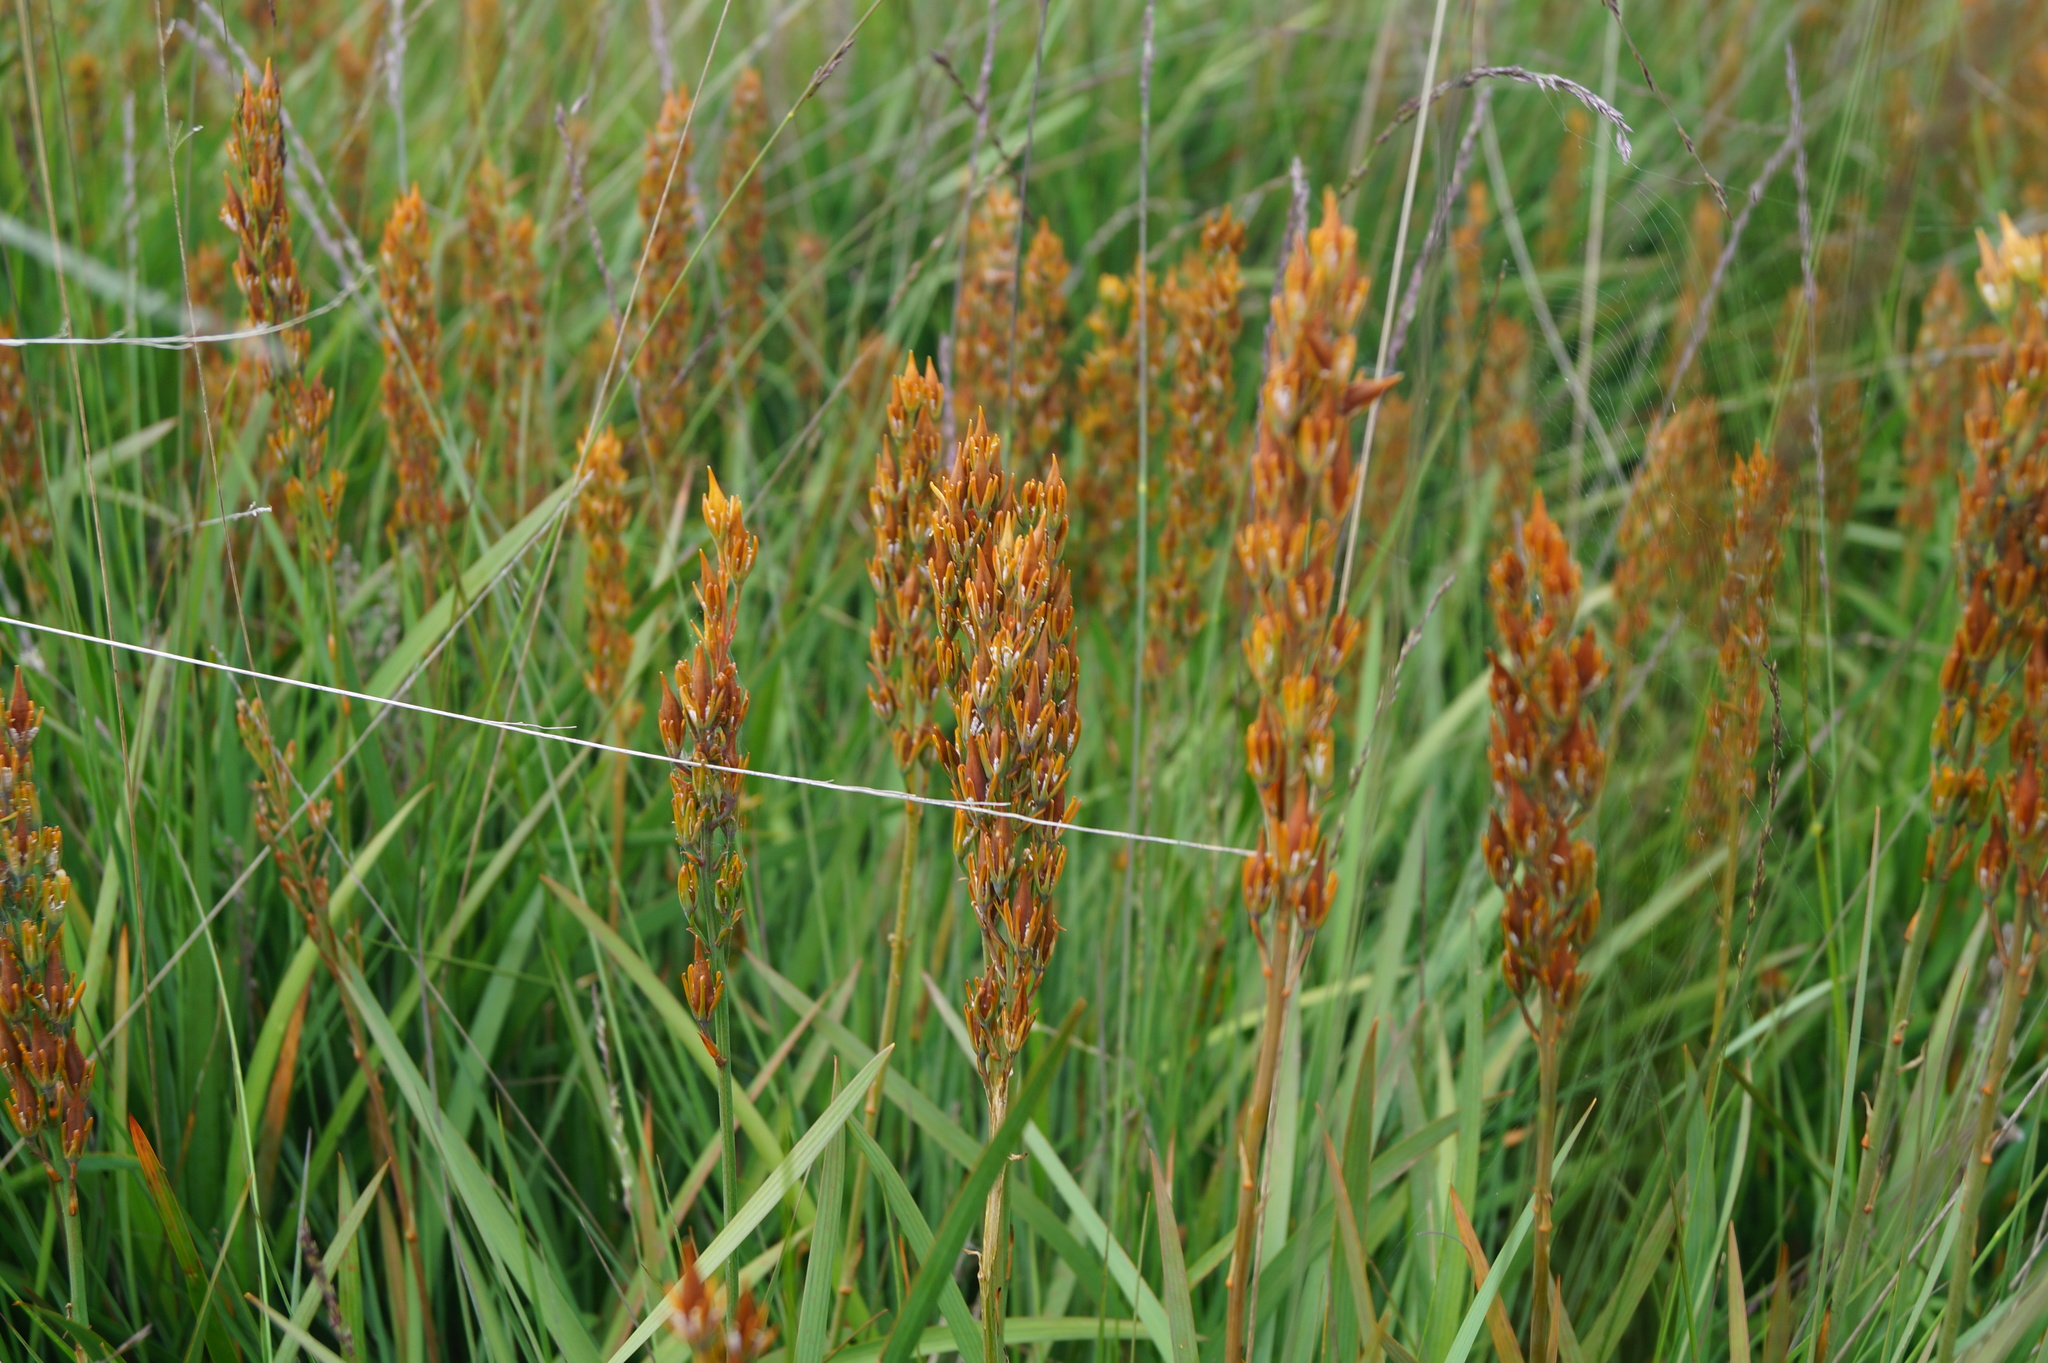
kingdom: Plantae
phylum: Tracheophyta
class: Liliopsida
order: Dioscoreales
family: Nartheciaceae
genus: Narthecium
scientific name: Narthecium ossifragum
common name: Bog asphodel
